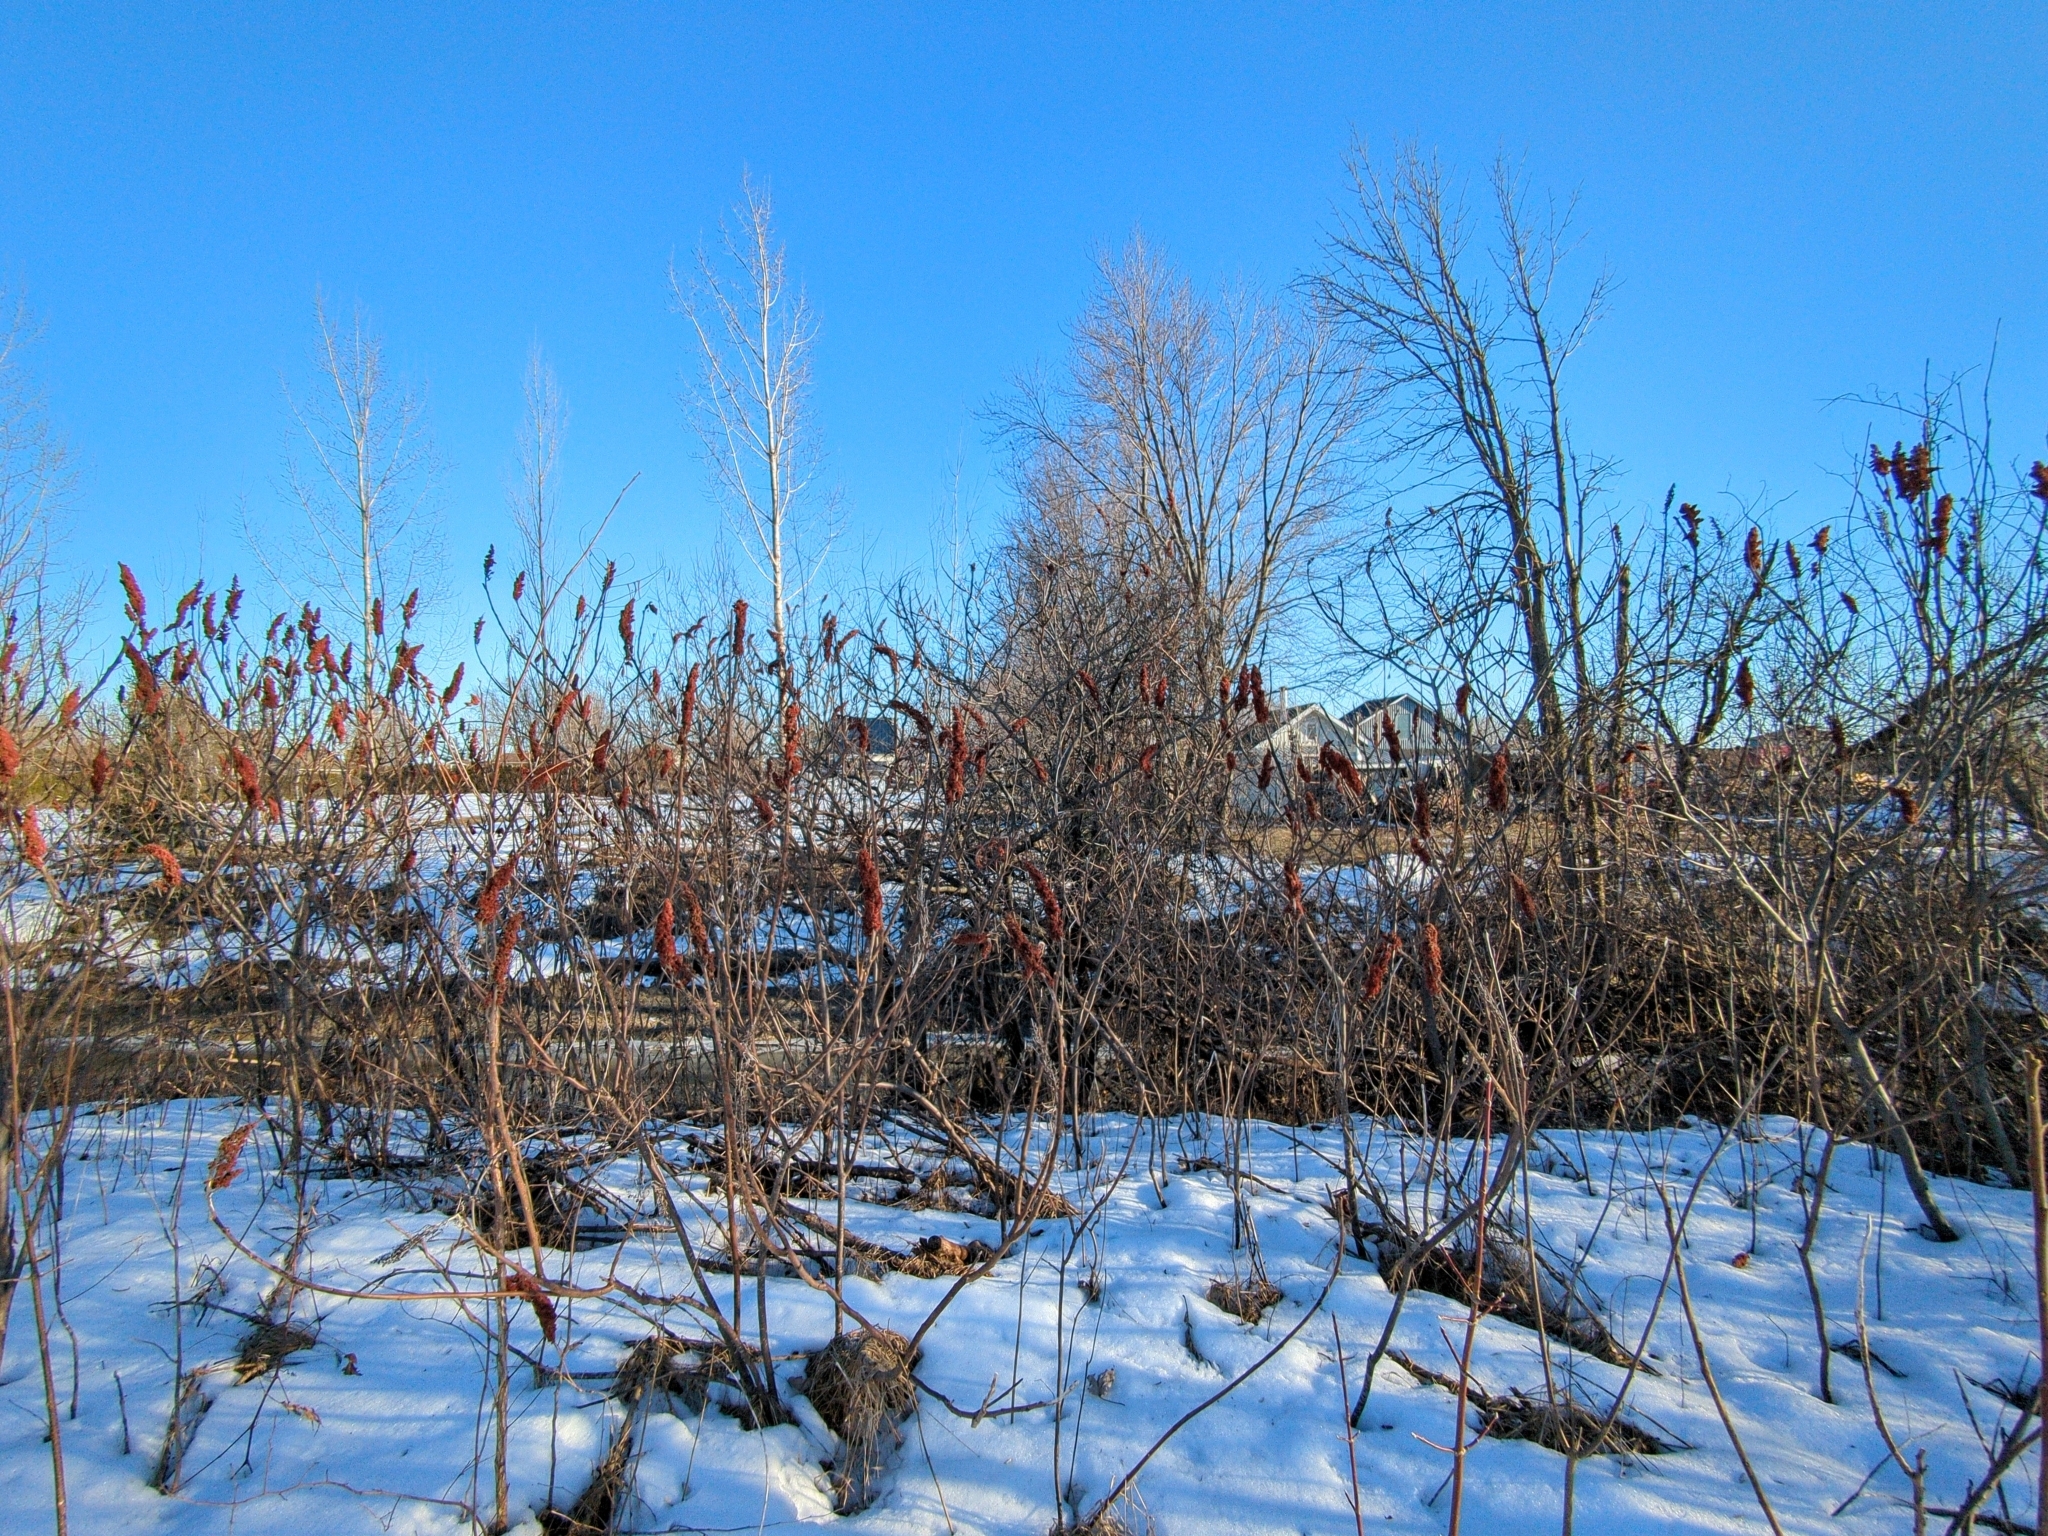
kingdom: Plantae
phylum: Tracheophyta
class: Magnoliopsida
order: Sapindales
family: Anacardiaceae
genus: Rhus
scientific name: Rhus typhina
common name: Staghorn sumac
